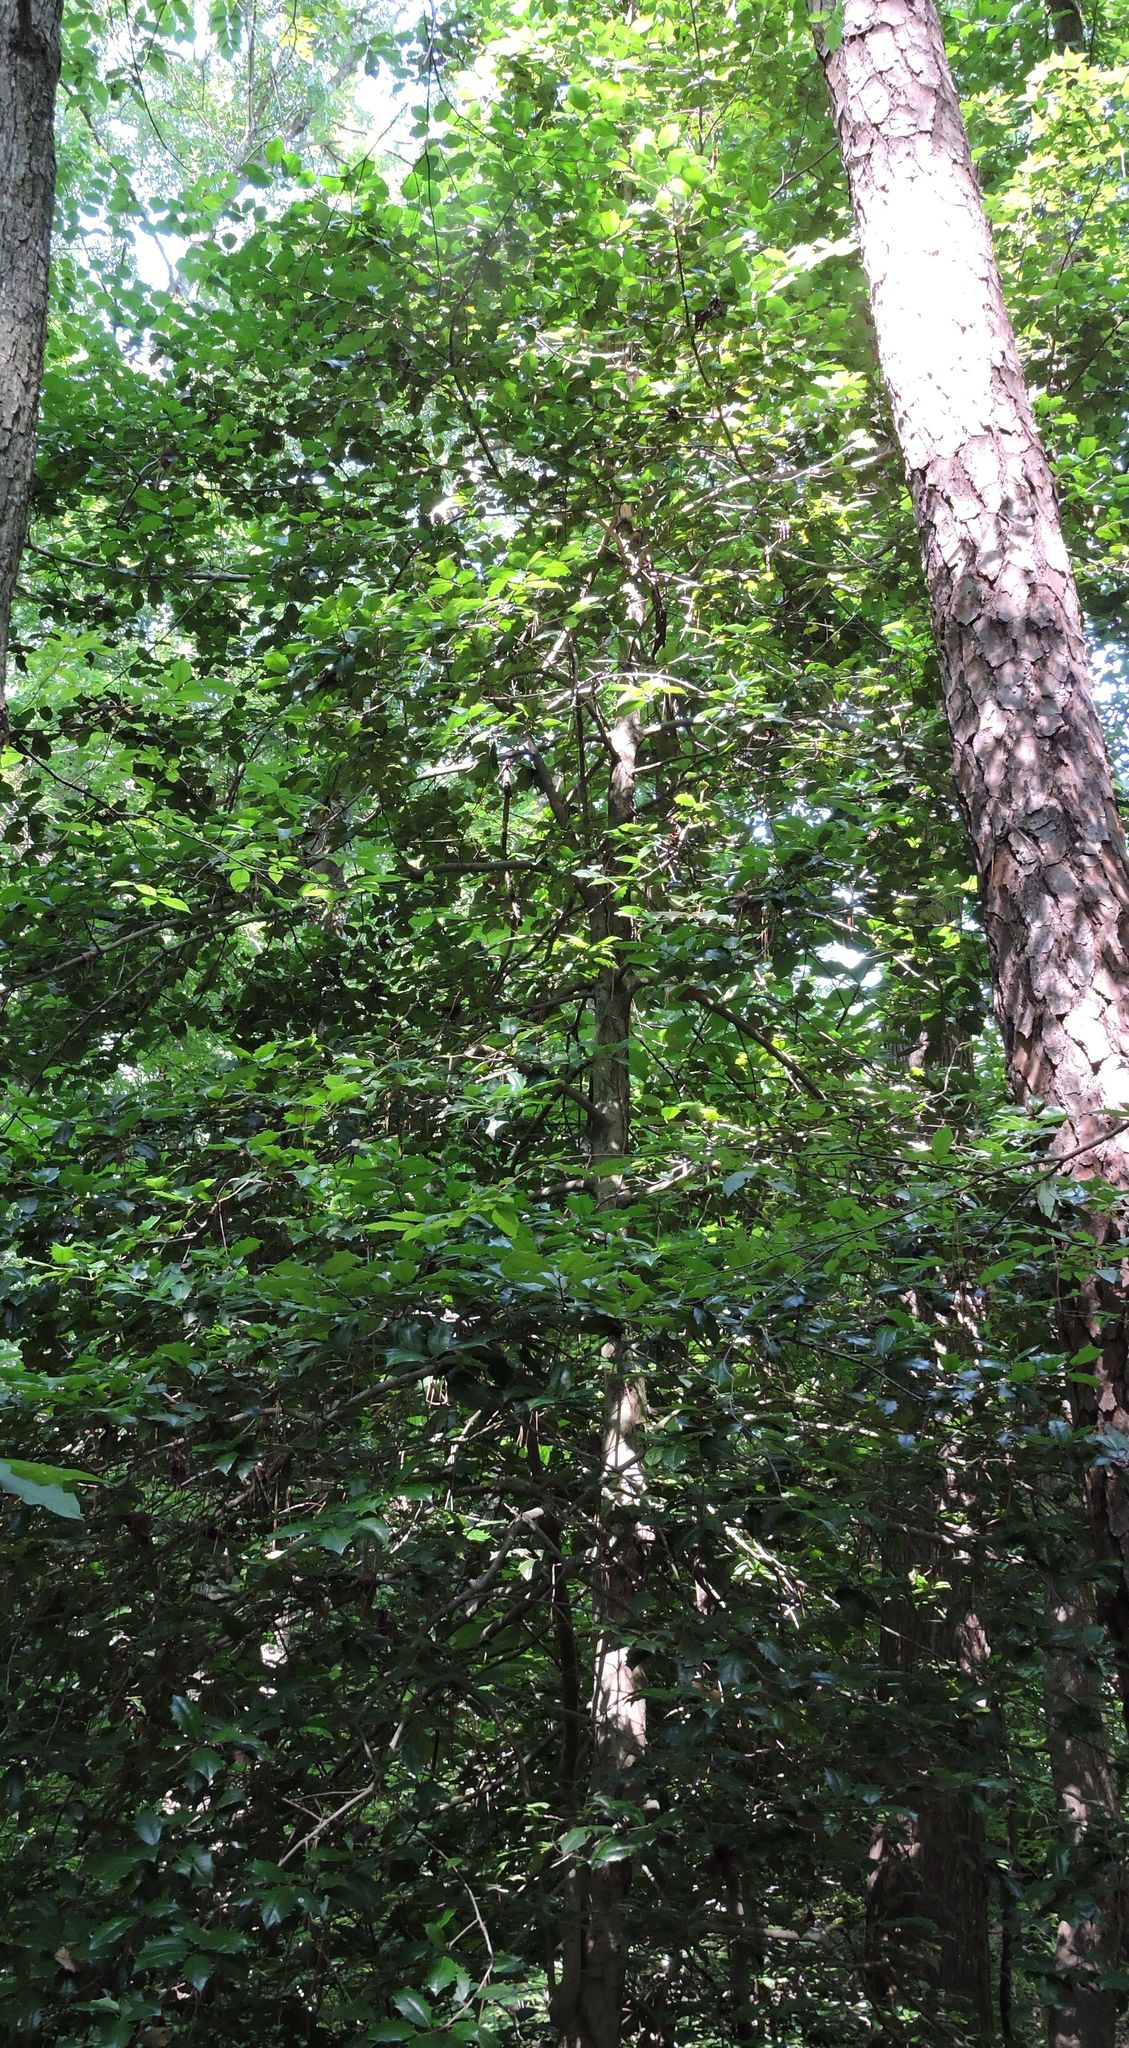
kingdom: Plantae
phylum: Tracheophyta
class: Magnoliopsida
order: Aquifoliales
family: Aquifoliaceae
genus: Ilex
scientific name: Ilex opaca
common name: American holly
